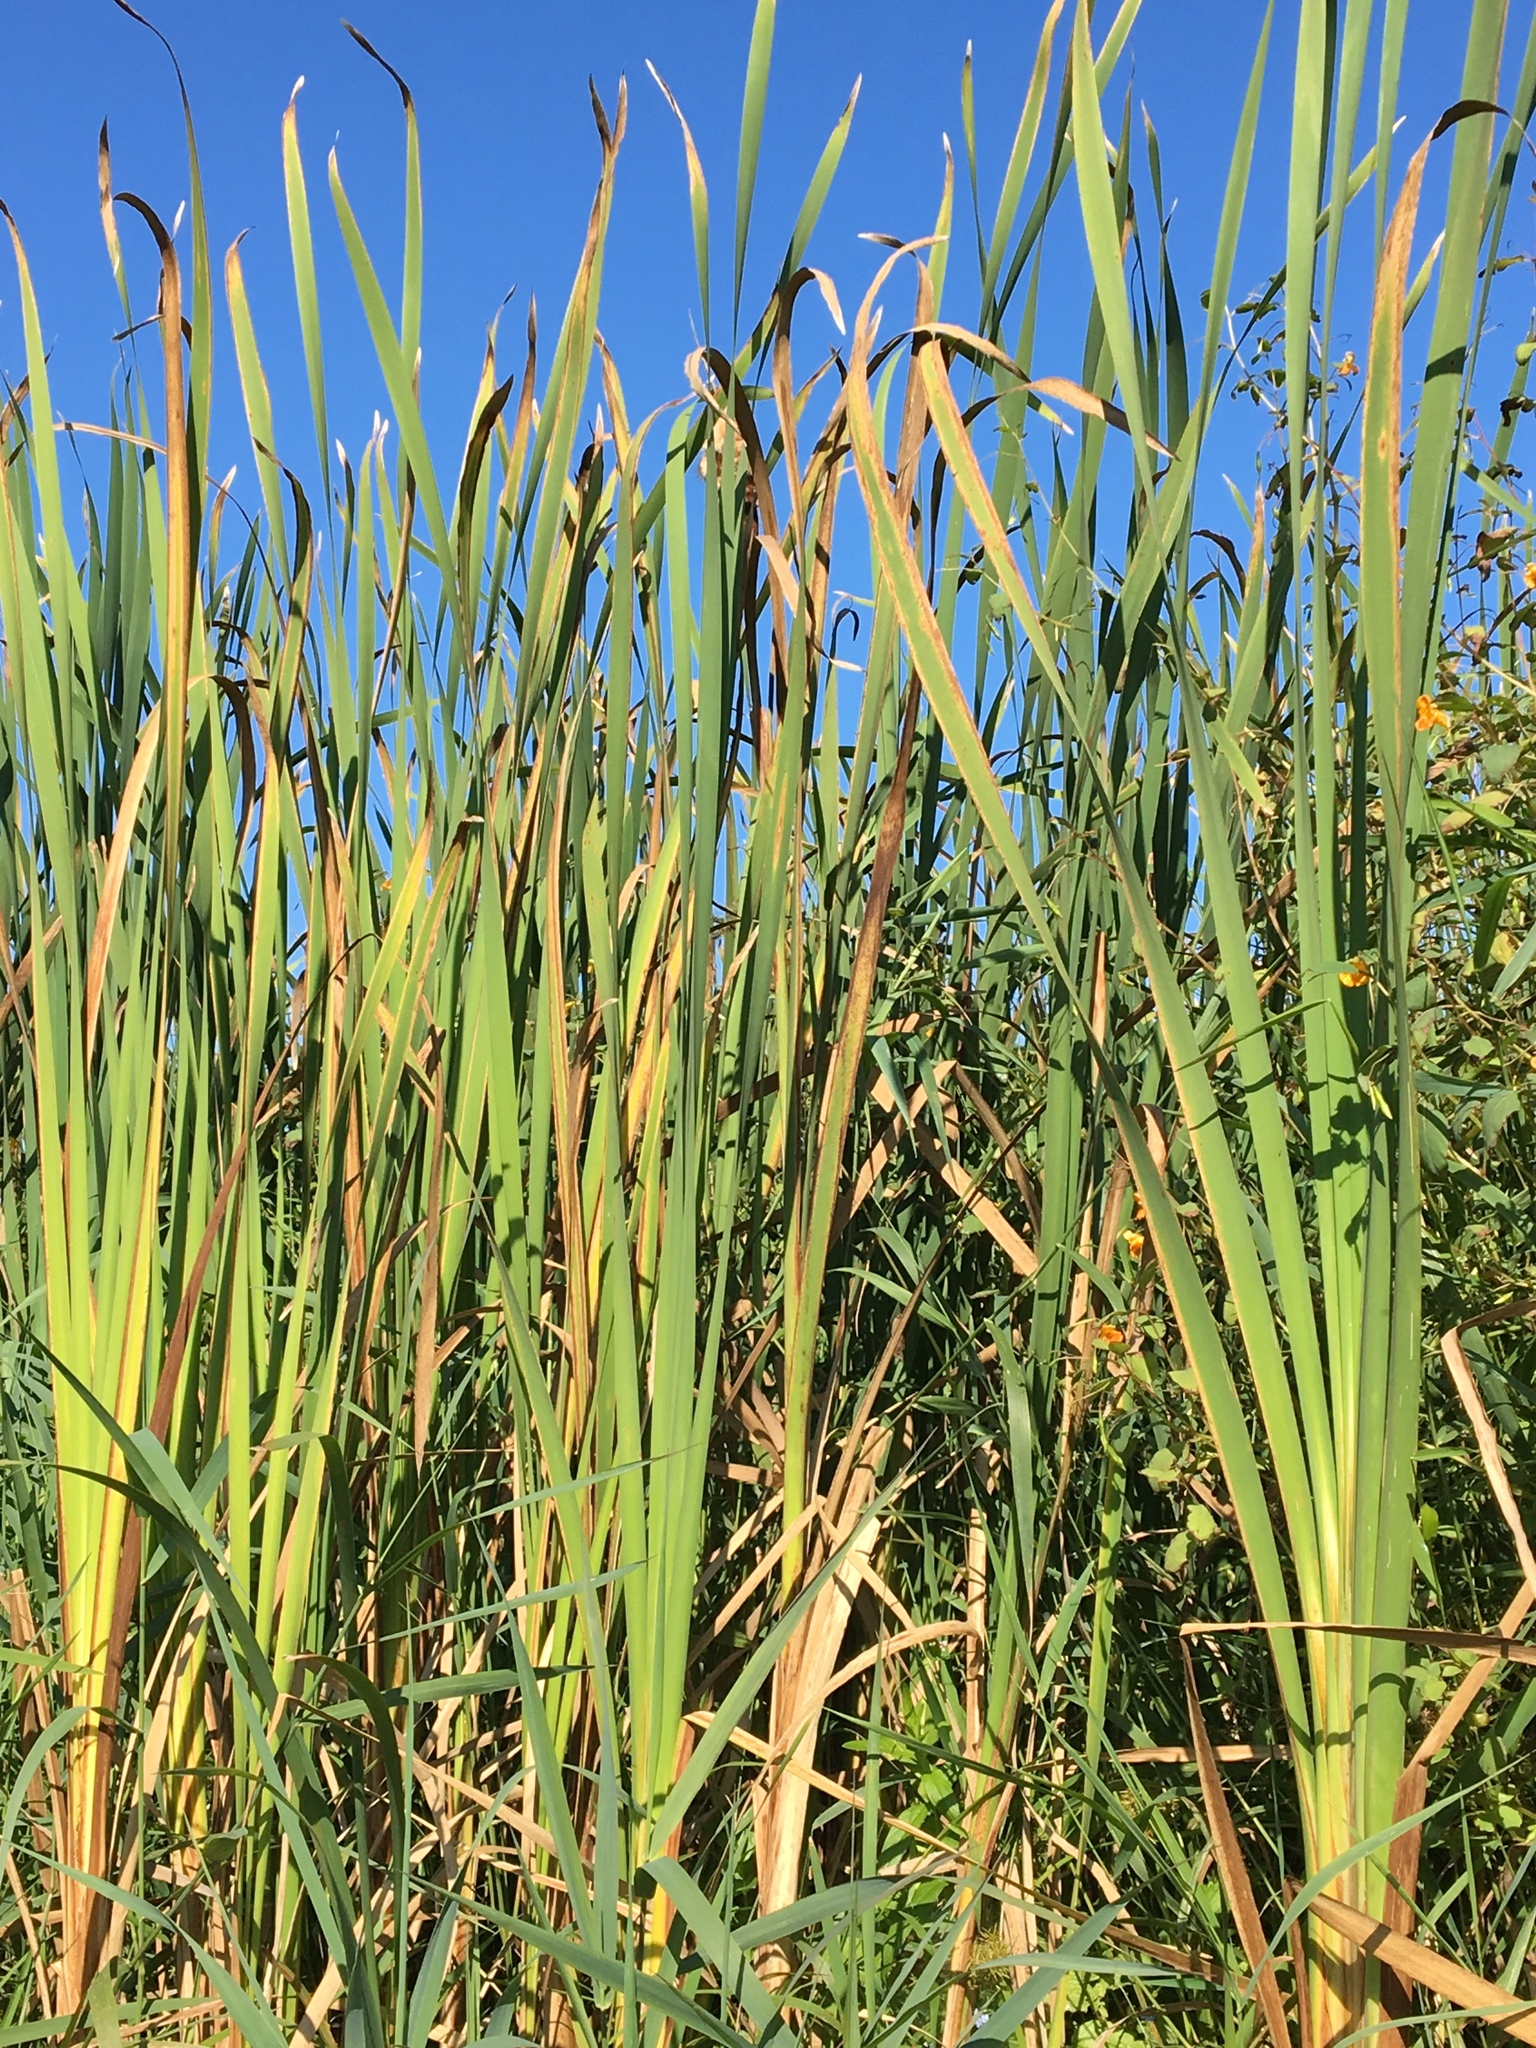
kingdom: Plantae
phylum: Tracheophyta
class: Liliopsida
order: Poales
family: Typhaceae
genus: Typha
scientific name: Typha latifolia
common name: Broadleaf cattail
